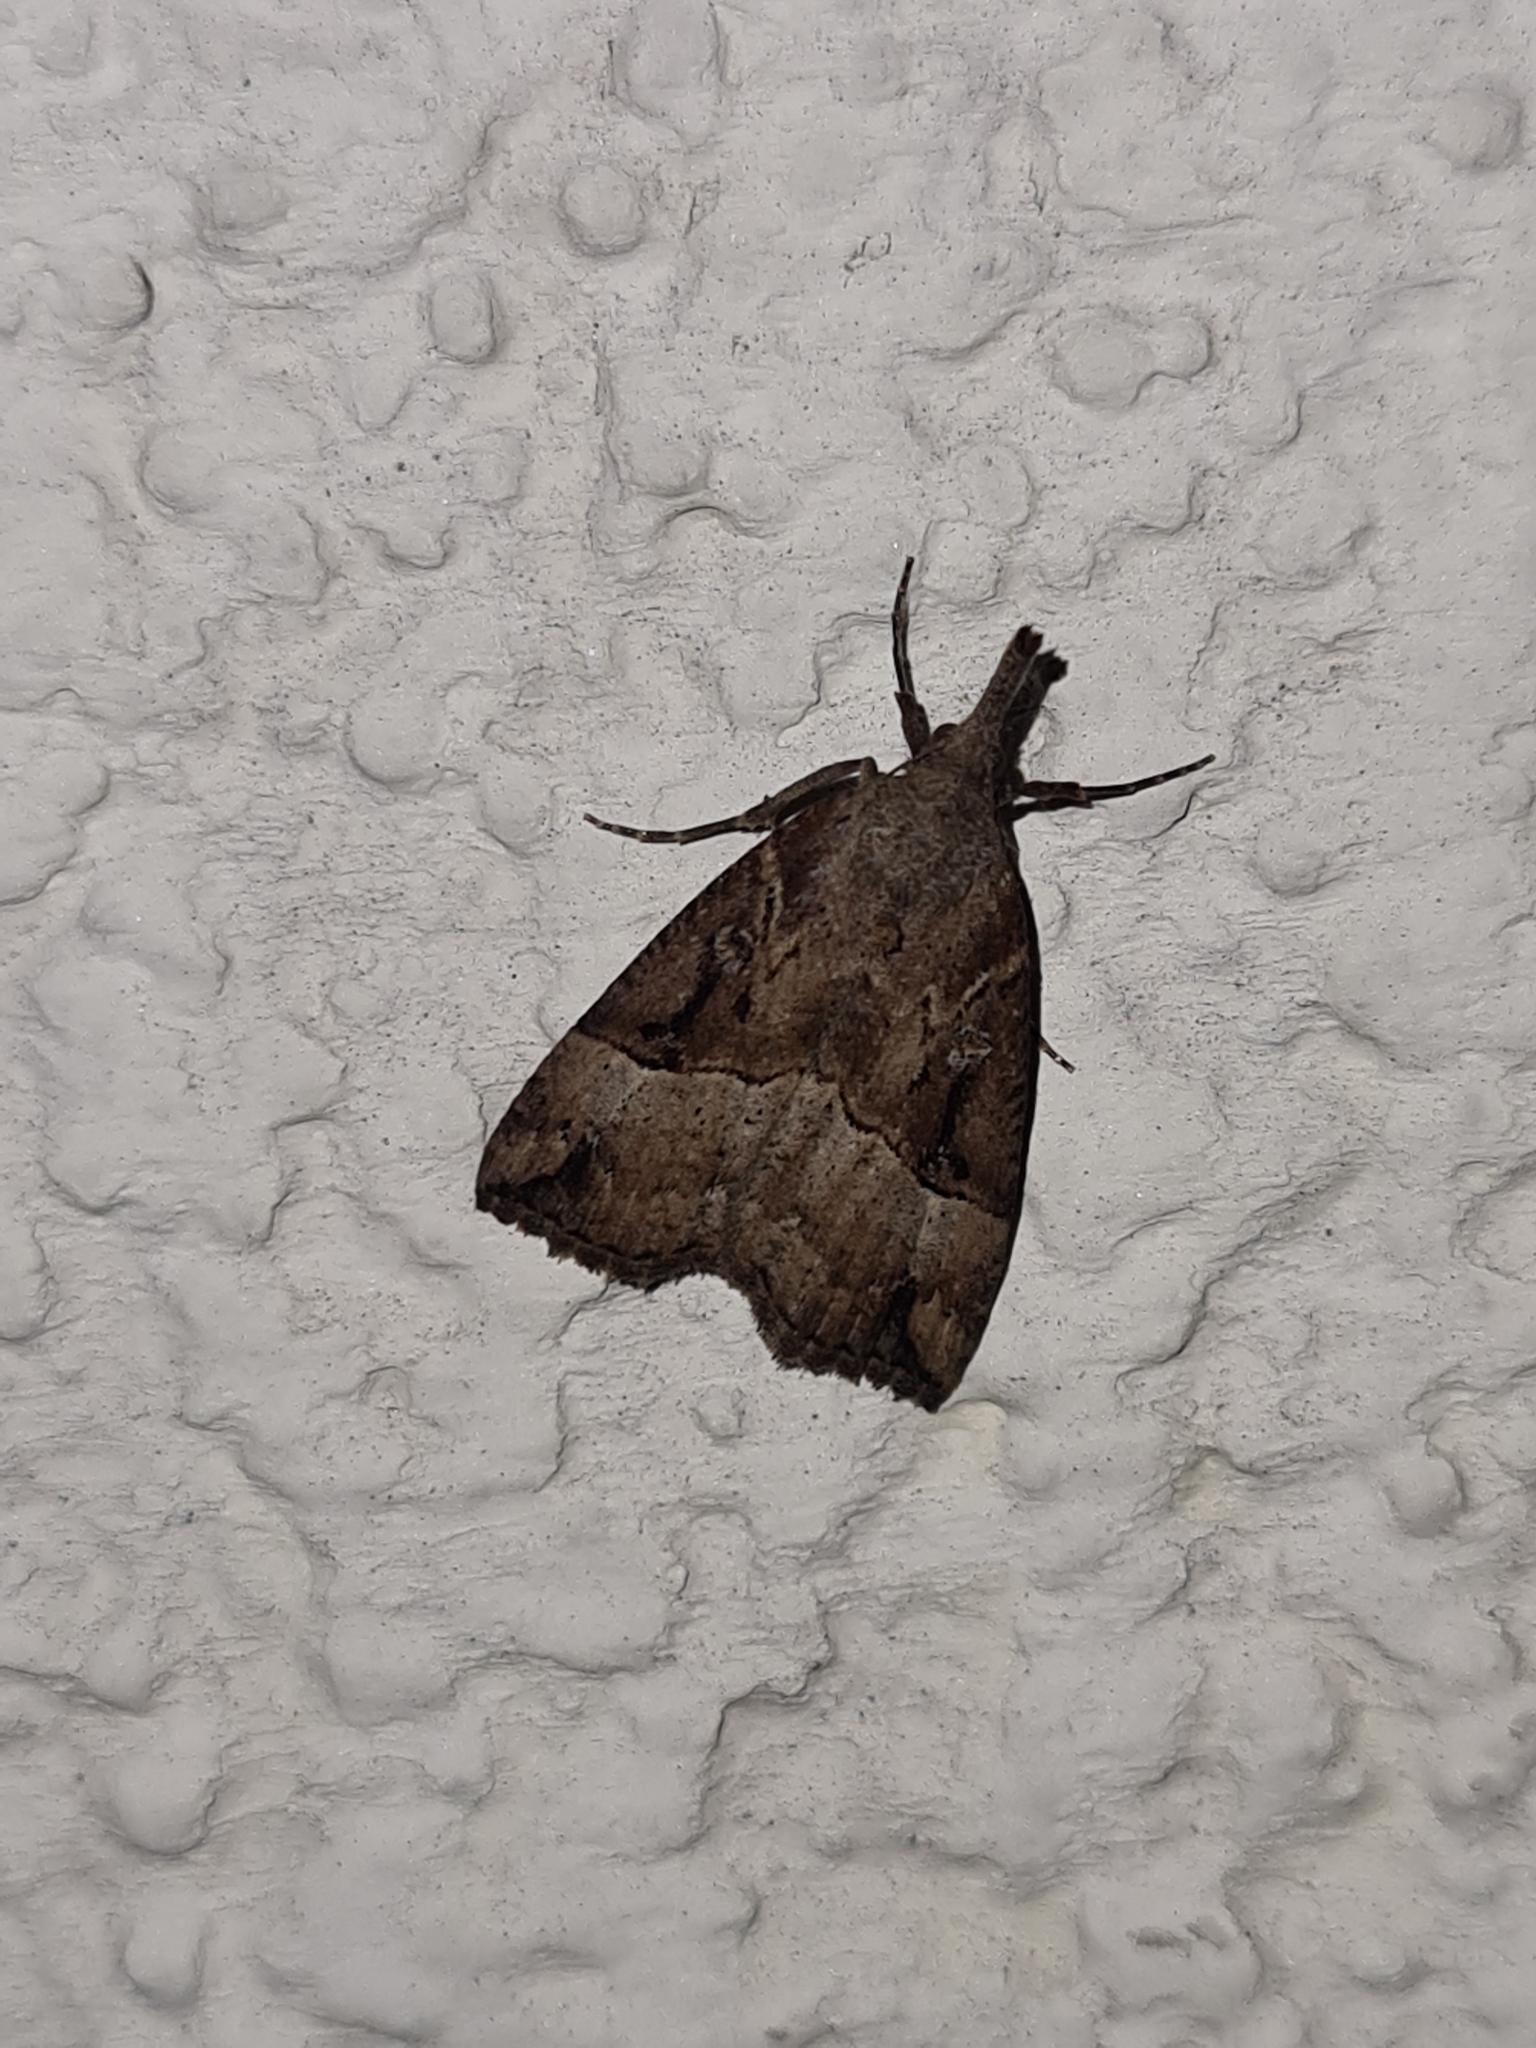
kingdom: Animalia
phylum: Arthropoda
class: Insecta
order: Lepidoptera
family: Erebidae
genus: Hypena
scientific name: Hypena rostralis
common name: Buttoned snout
